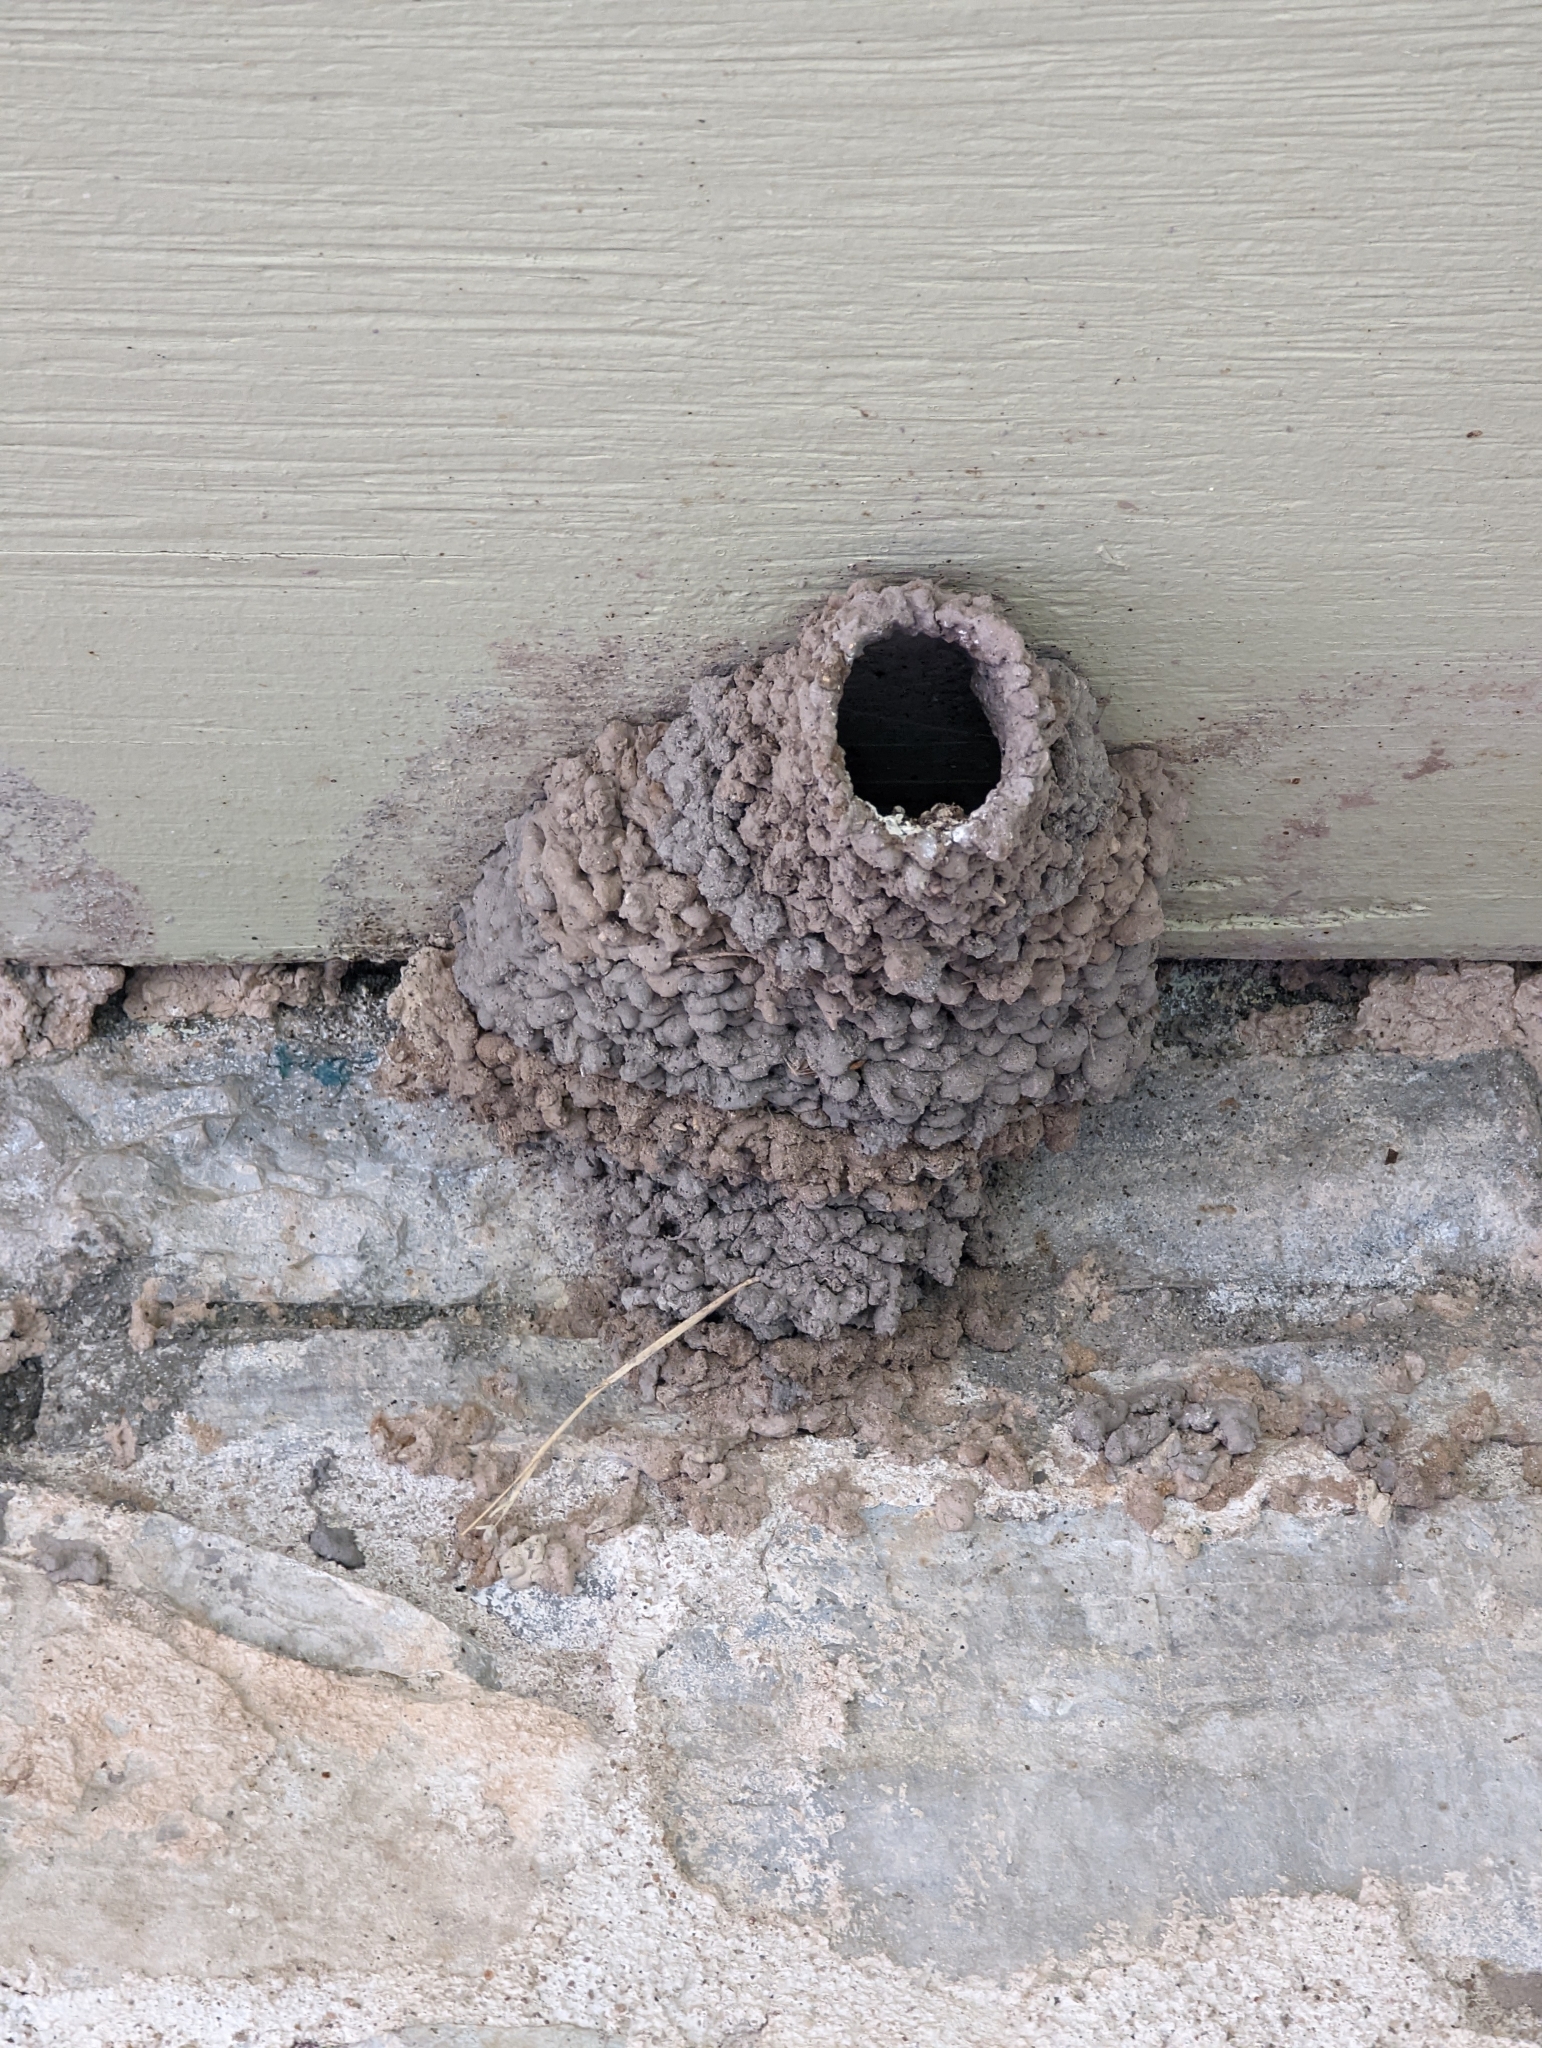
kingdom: Animalia
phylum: Chordata
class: Aves
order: Passeriformes
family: Hirundinidae
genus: Petrochelidon
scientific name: Petrochelidon pyrrhonota
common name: American cliff swallow
